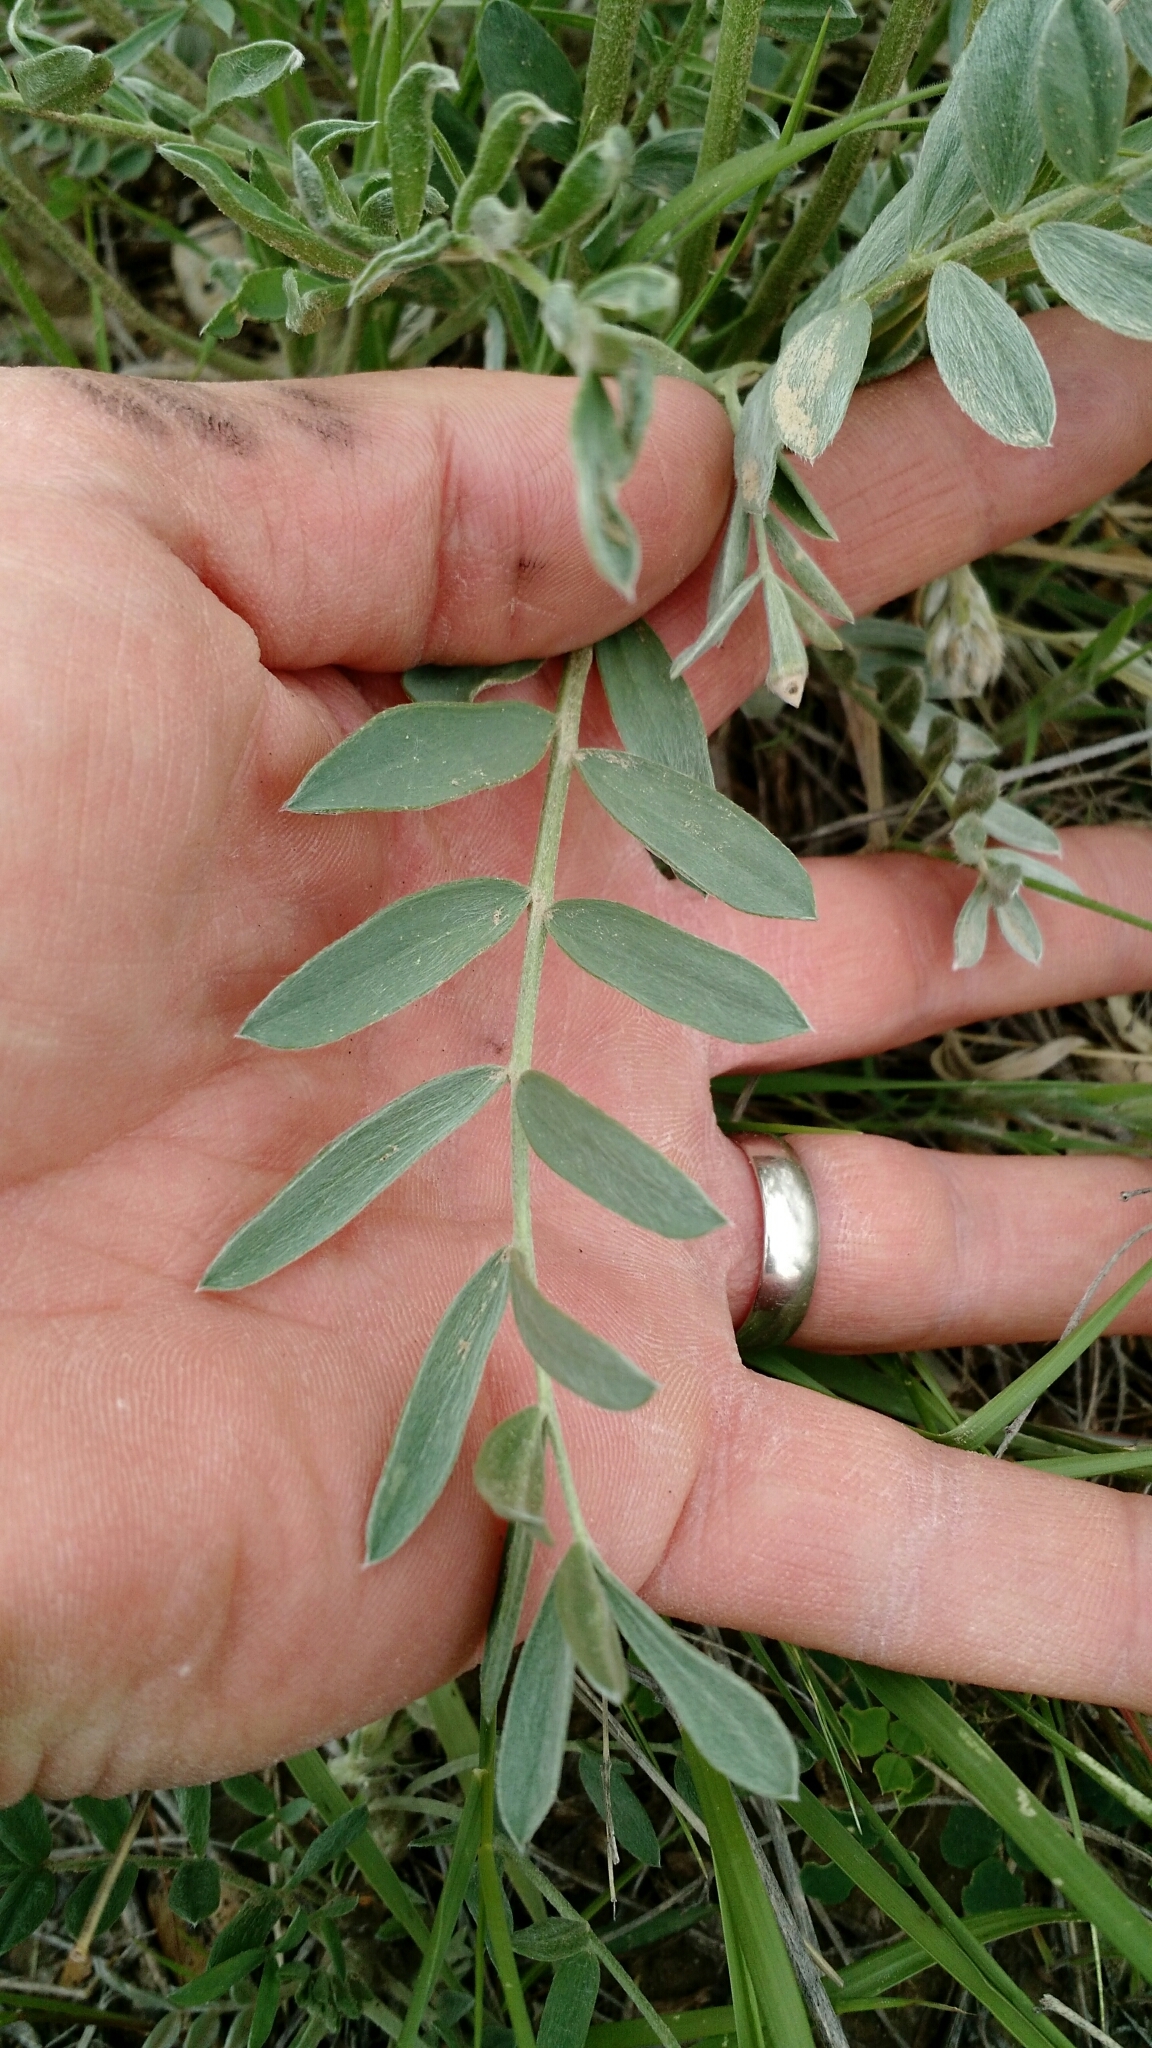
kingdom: Plantae
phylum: Tracheophyta
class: Magnoliopsida
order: Fabales
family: Fabaceae
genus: Oxytropis
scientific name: Oxytropis sericea
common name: Silky locoweed
